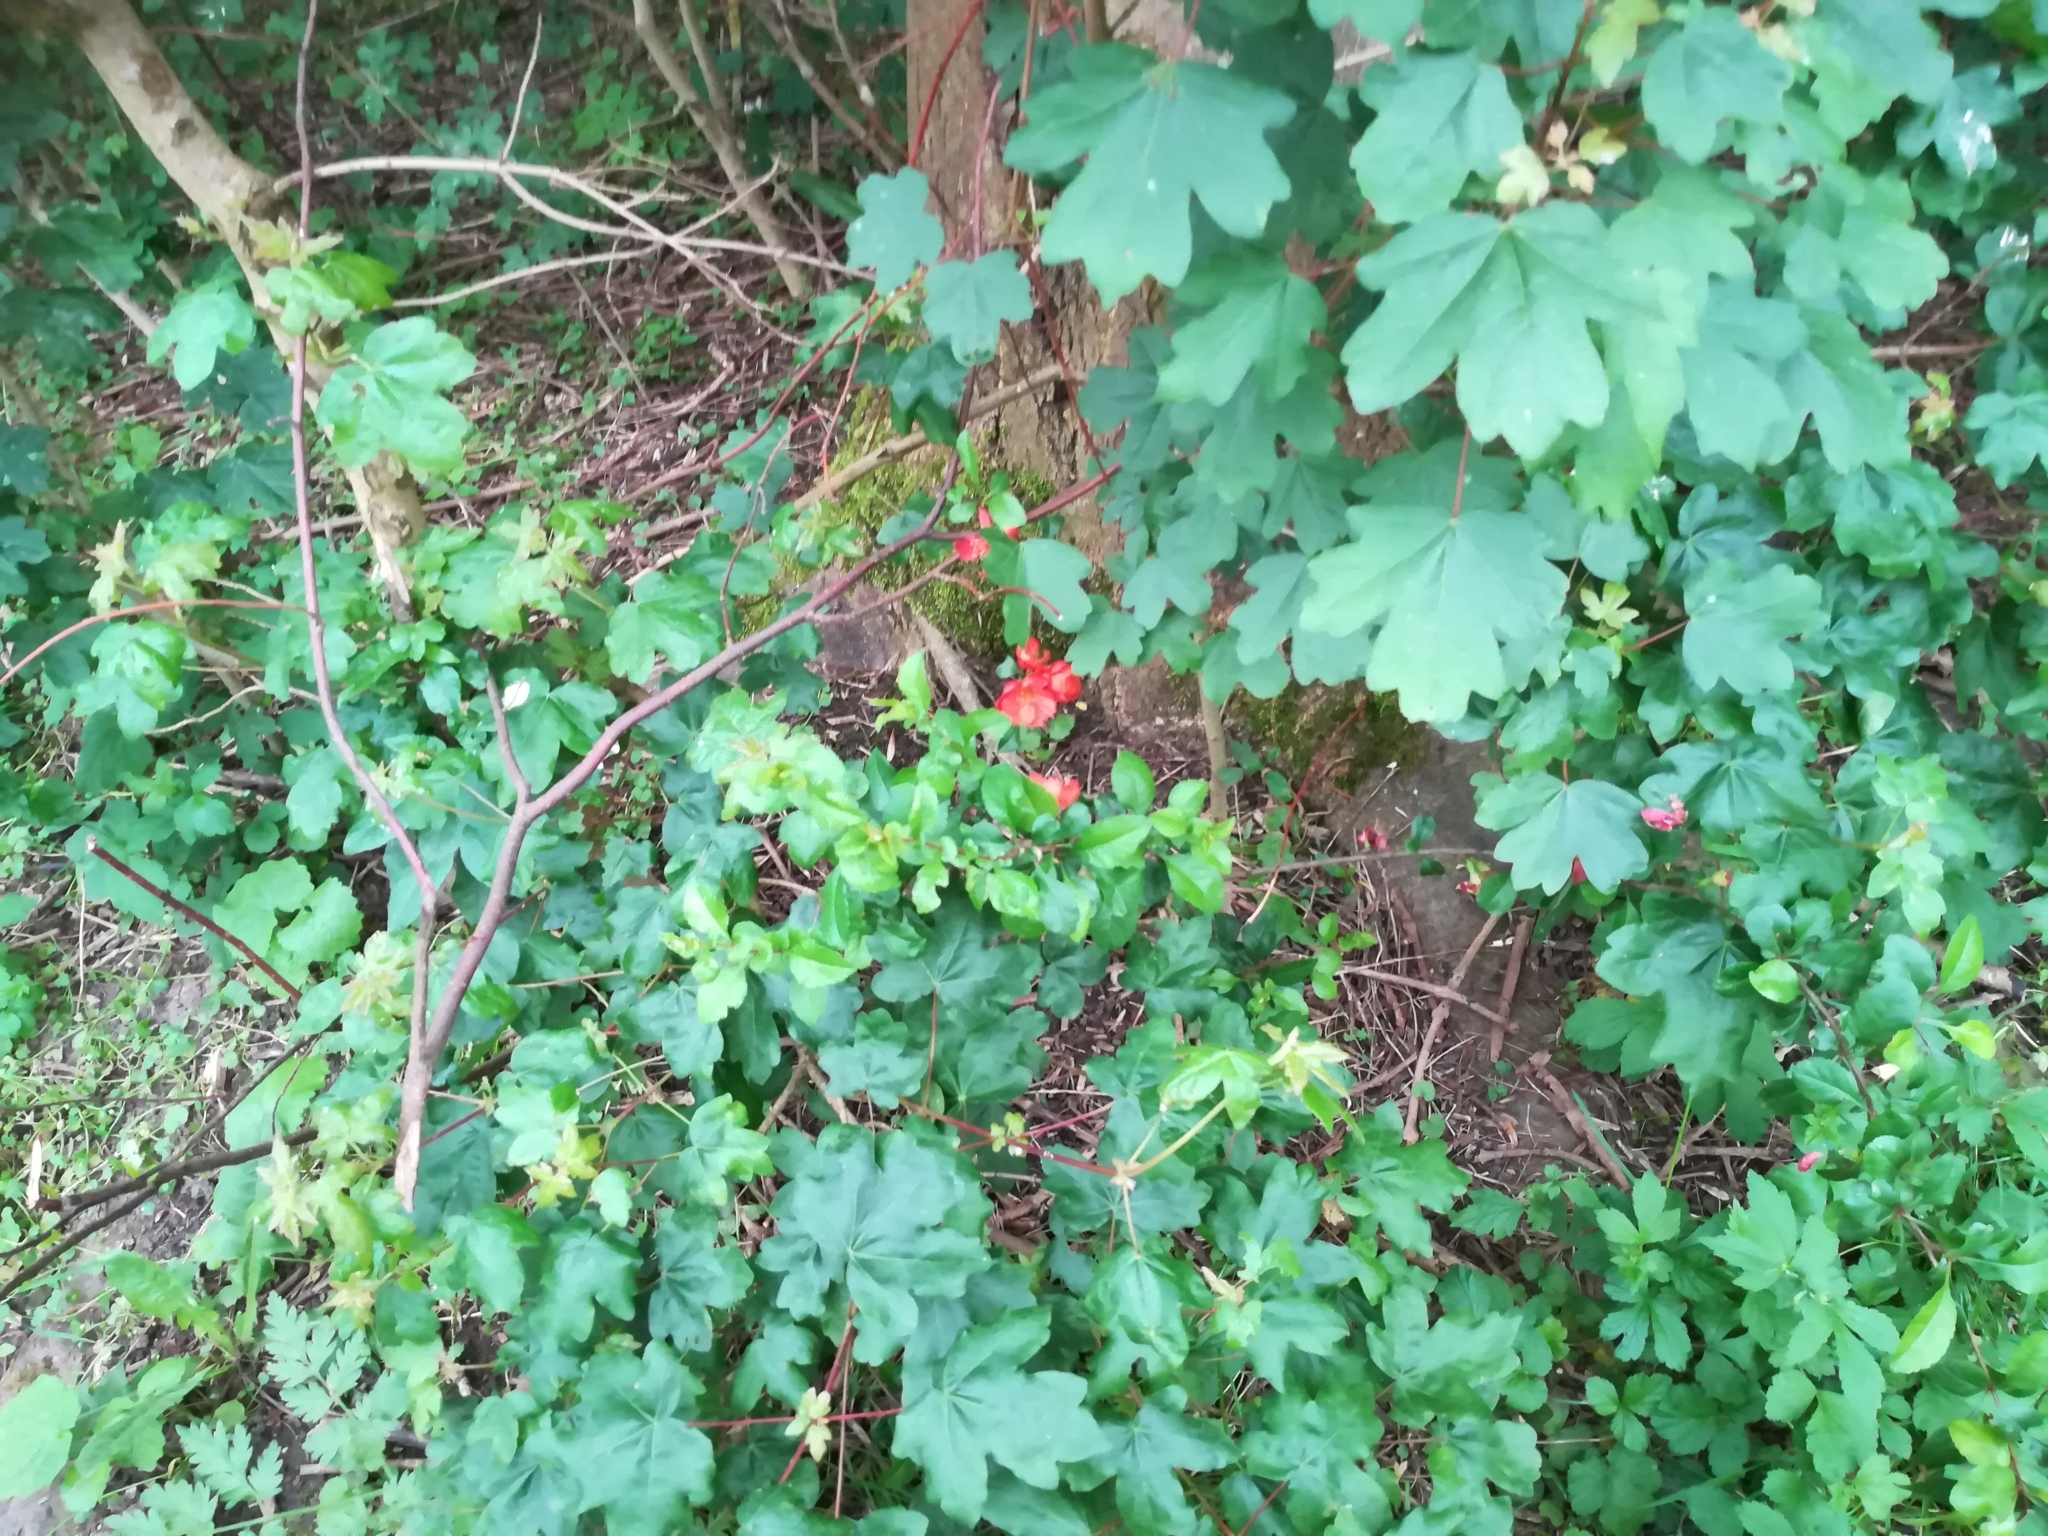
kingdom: Plantae
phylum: Tracheophyta
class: Magnoliopsida
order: Rosales
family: Rosaceae
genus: Chaenomeles
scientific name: Chaenomeles speciosa
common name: Japanese quince
